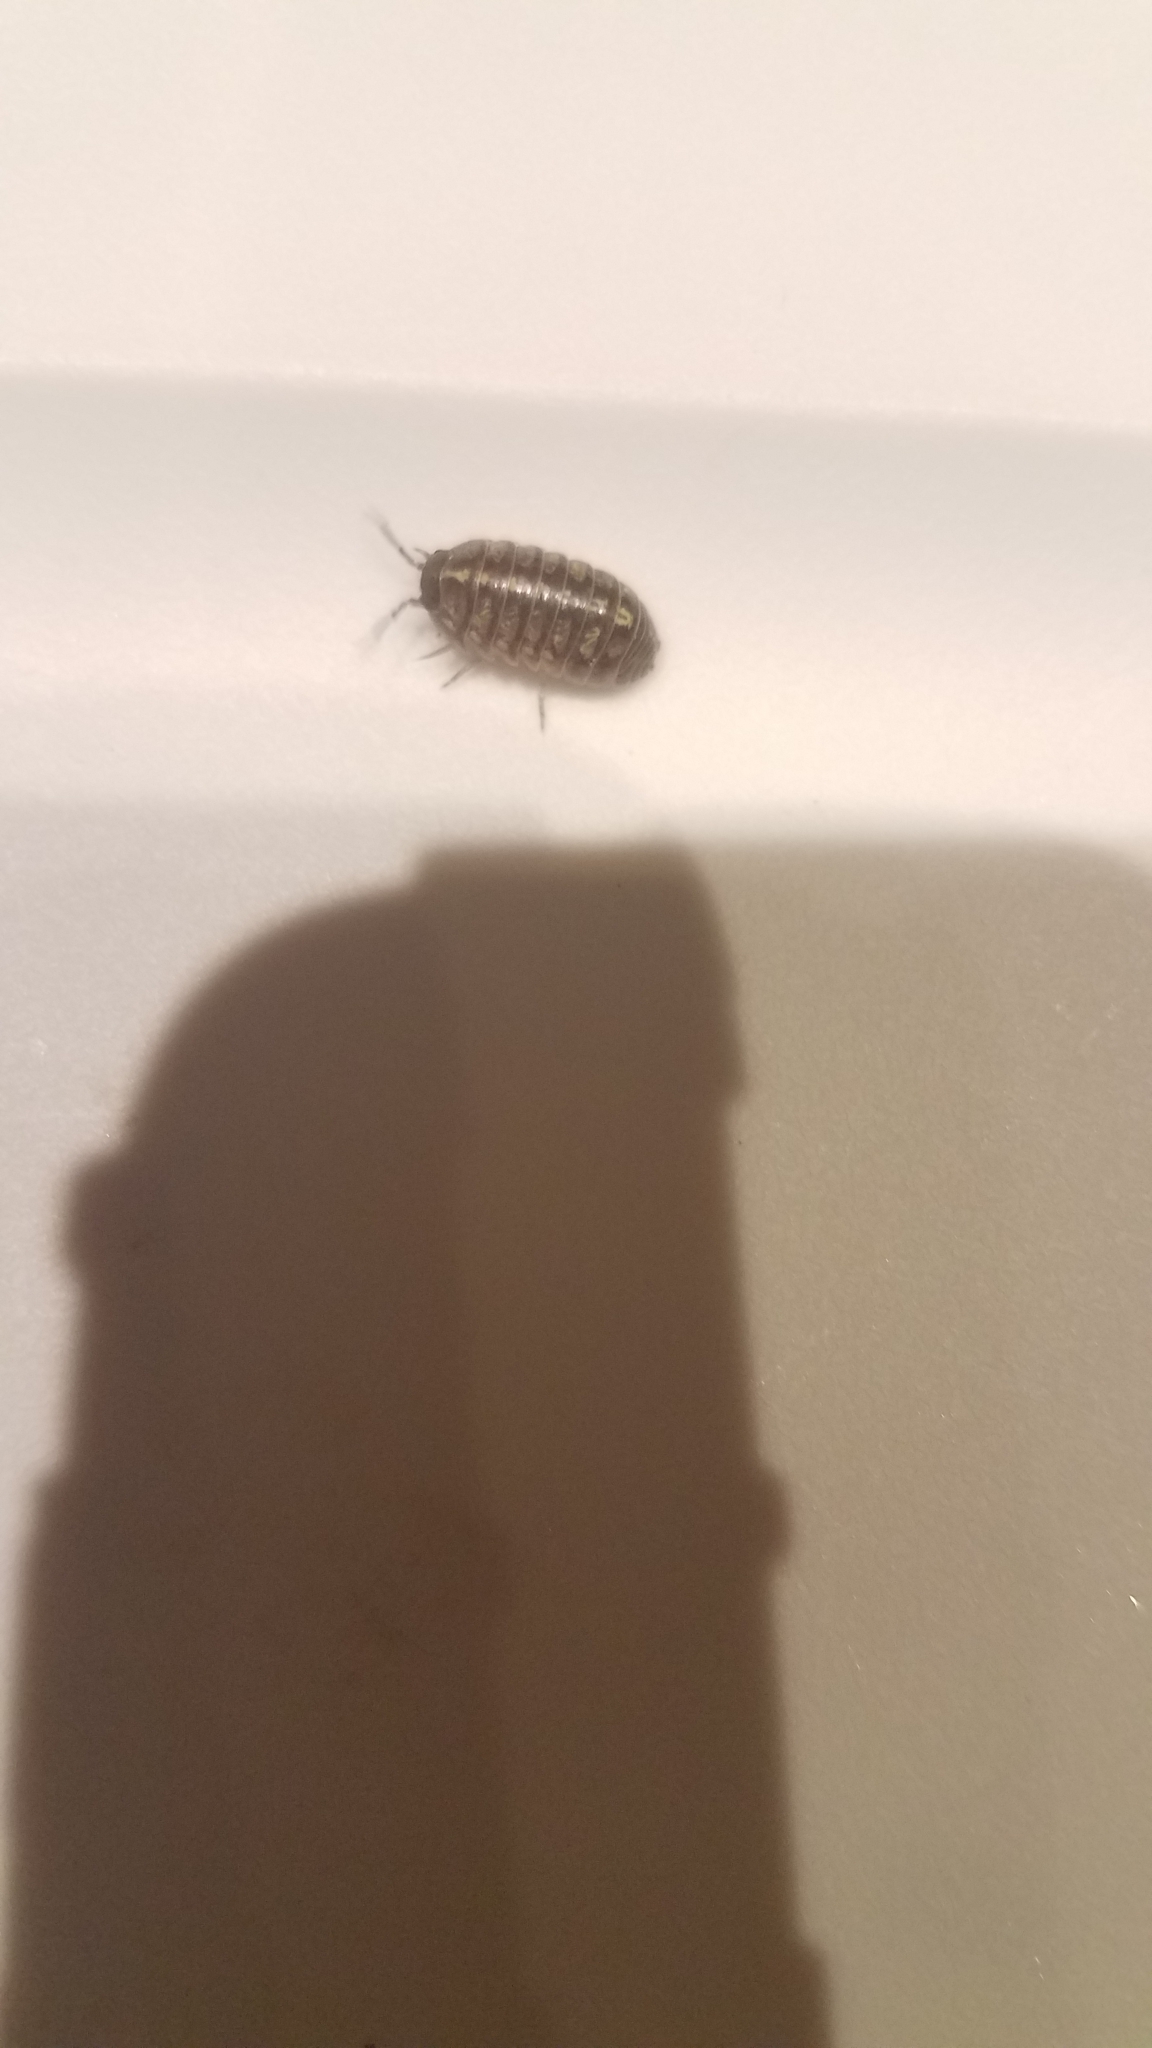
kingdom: Animalia
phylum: Arthropoda
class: Malacostraca
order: Isopoda
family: Armadillidiidae
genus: Armadillidium
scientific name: Armadillidium vulgare
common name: Common pill woodlouse
